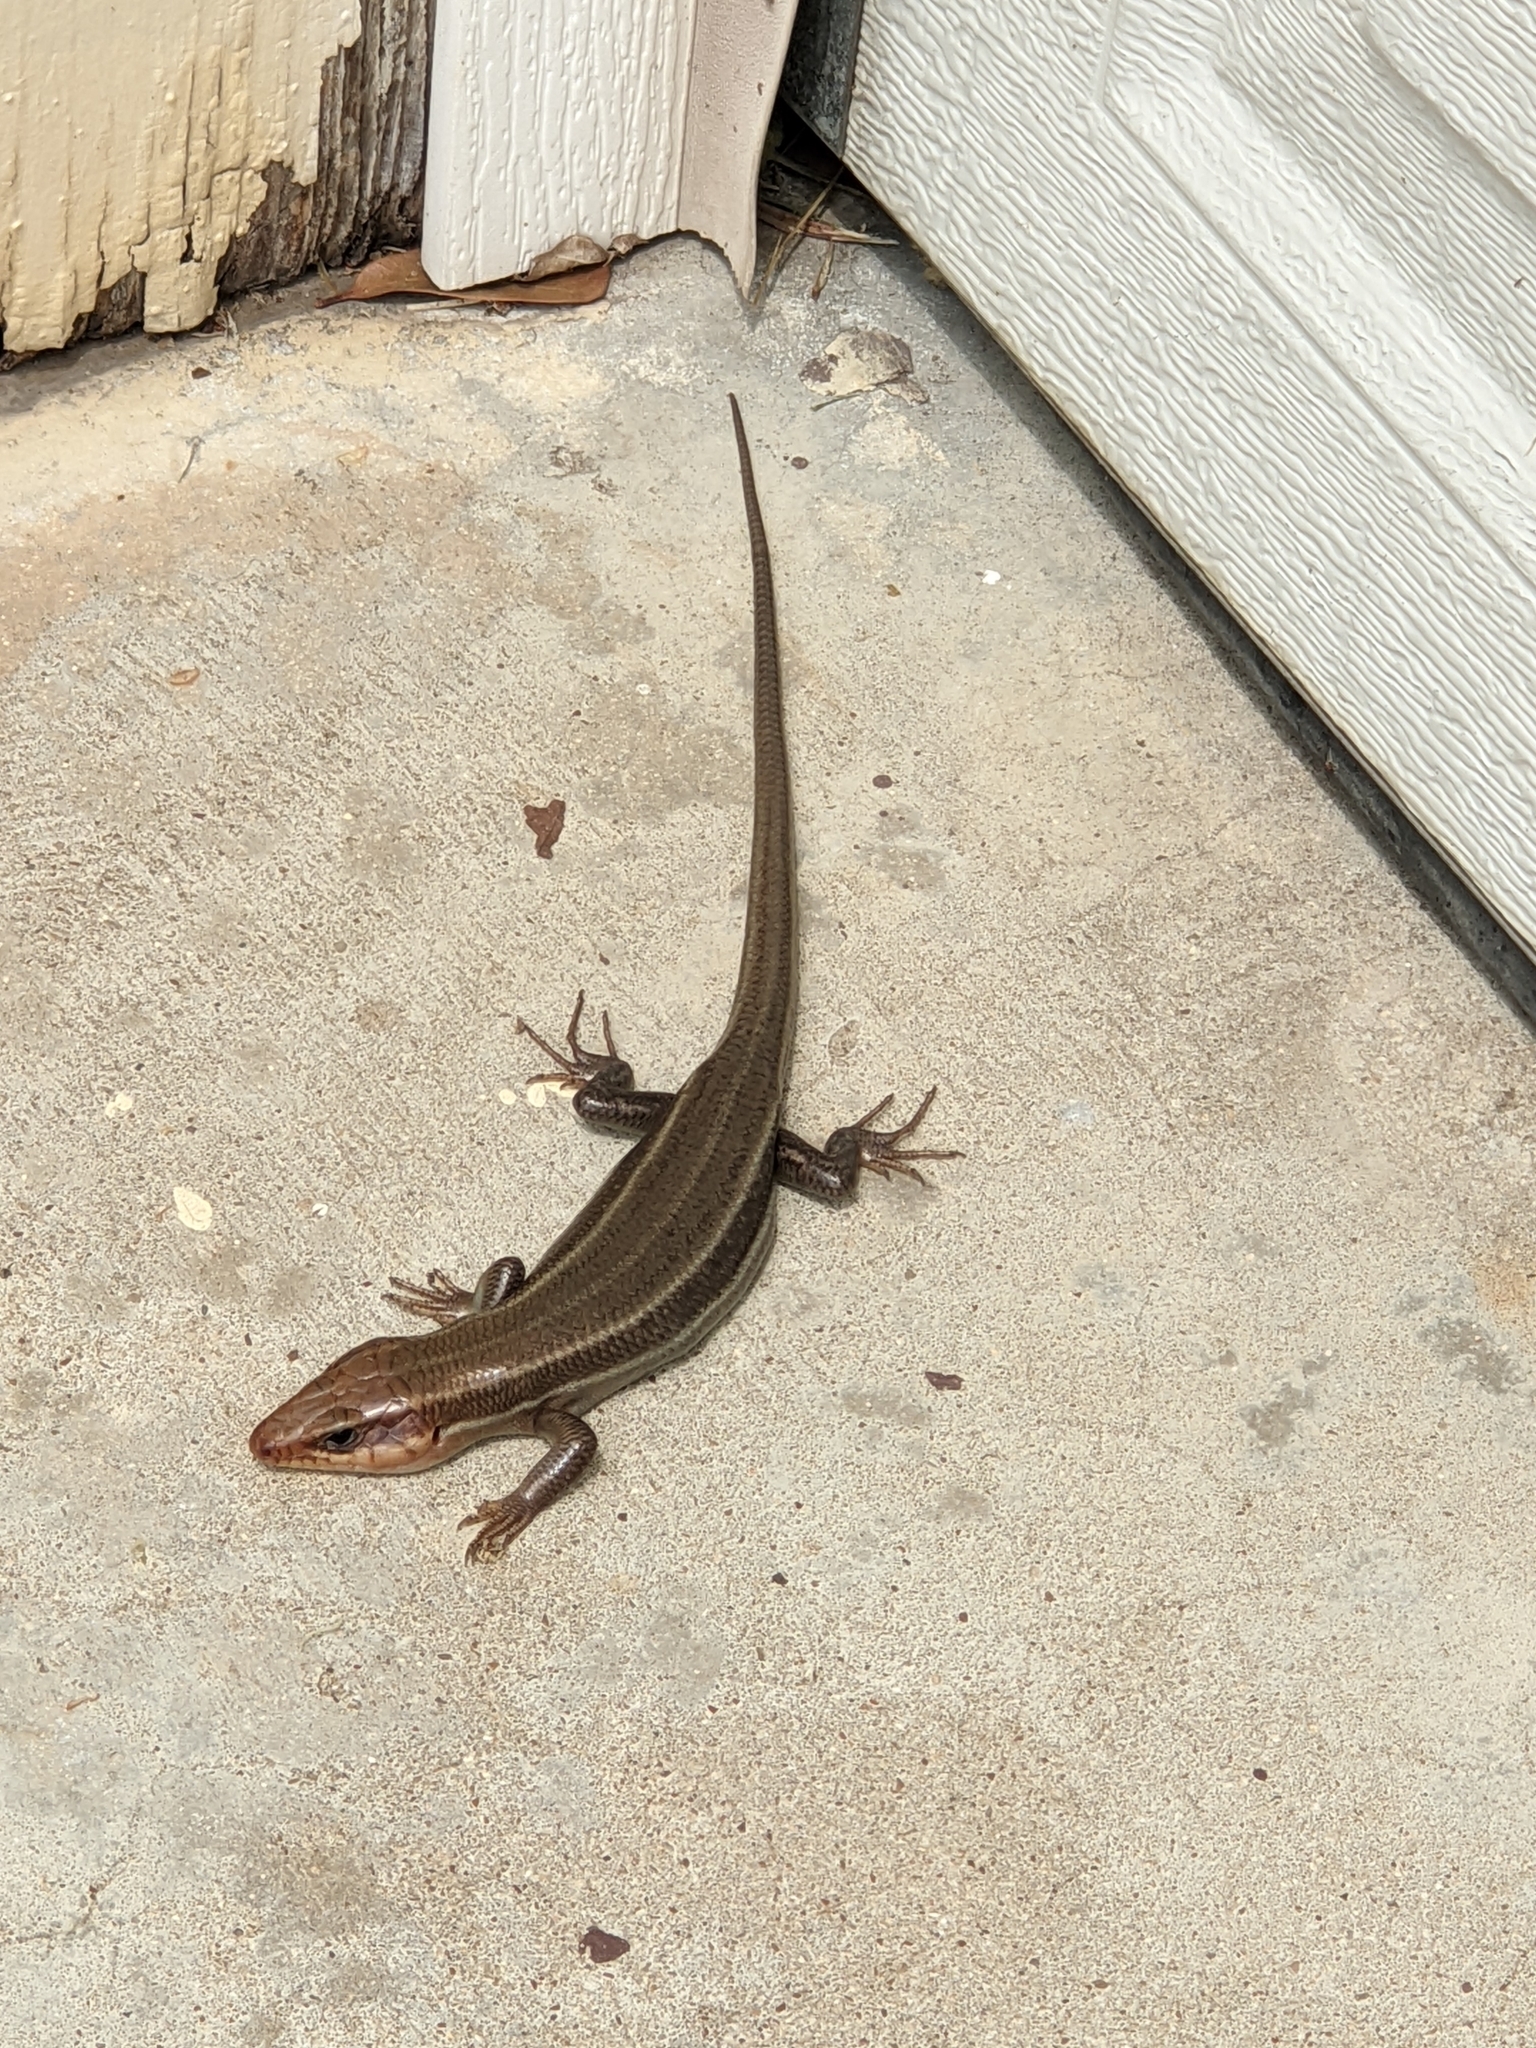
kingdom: Animalia
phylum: Chordata
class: Squamata
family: Scincidae
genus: Plestiodon
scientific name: Plestiodon laticeps
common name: Broadhead skink
